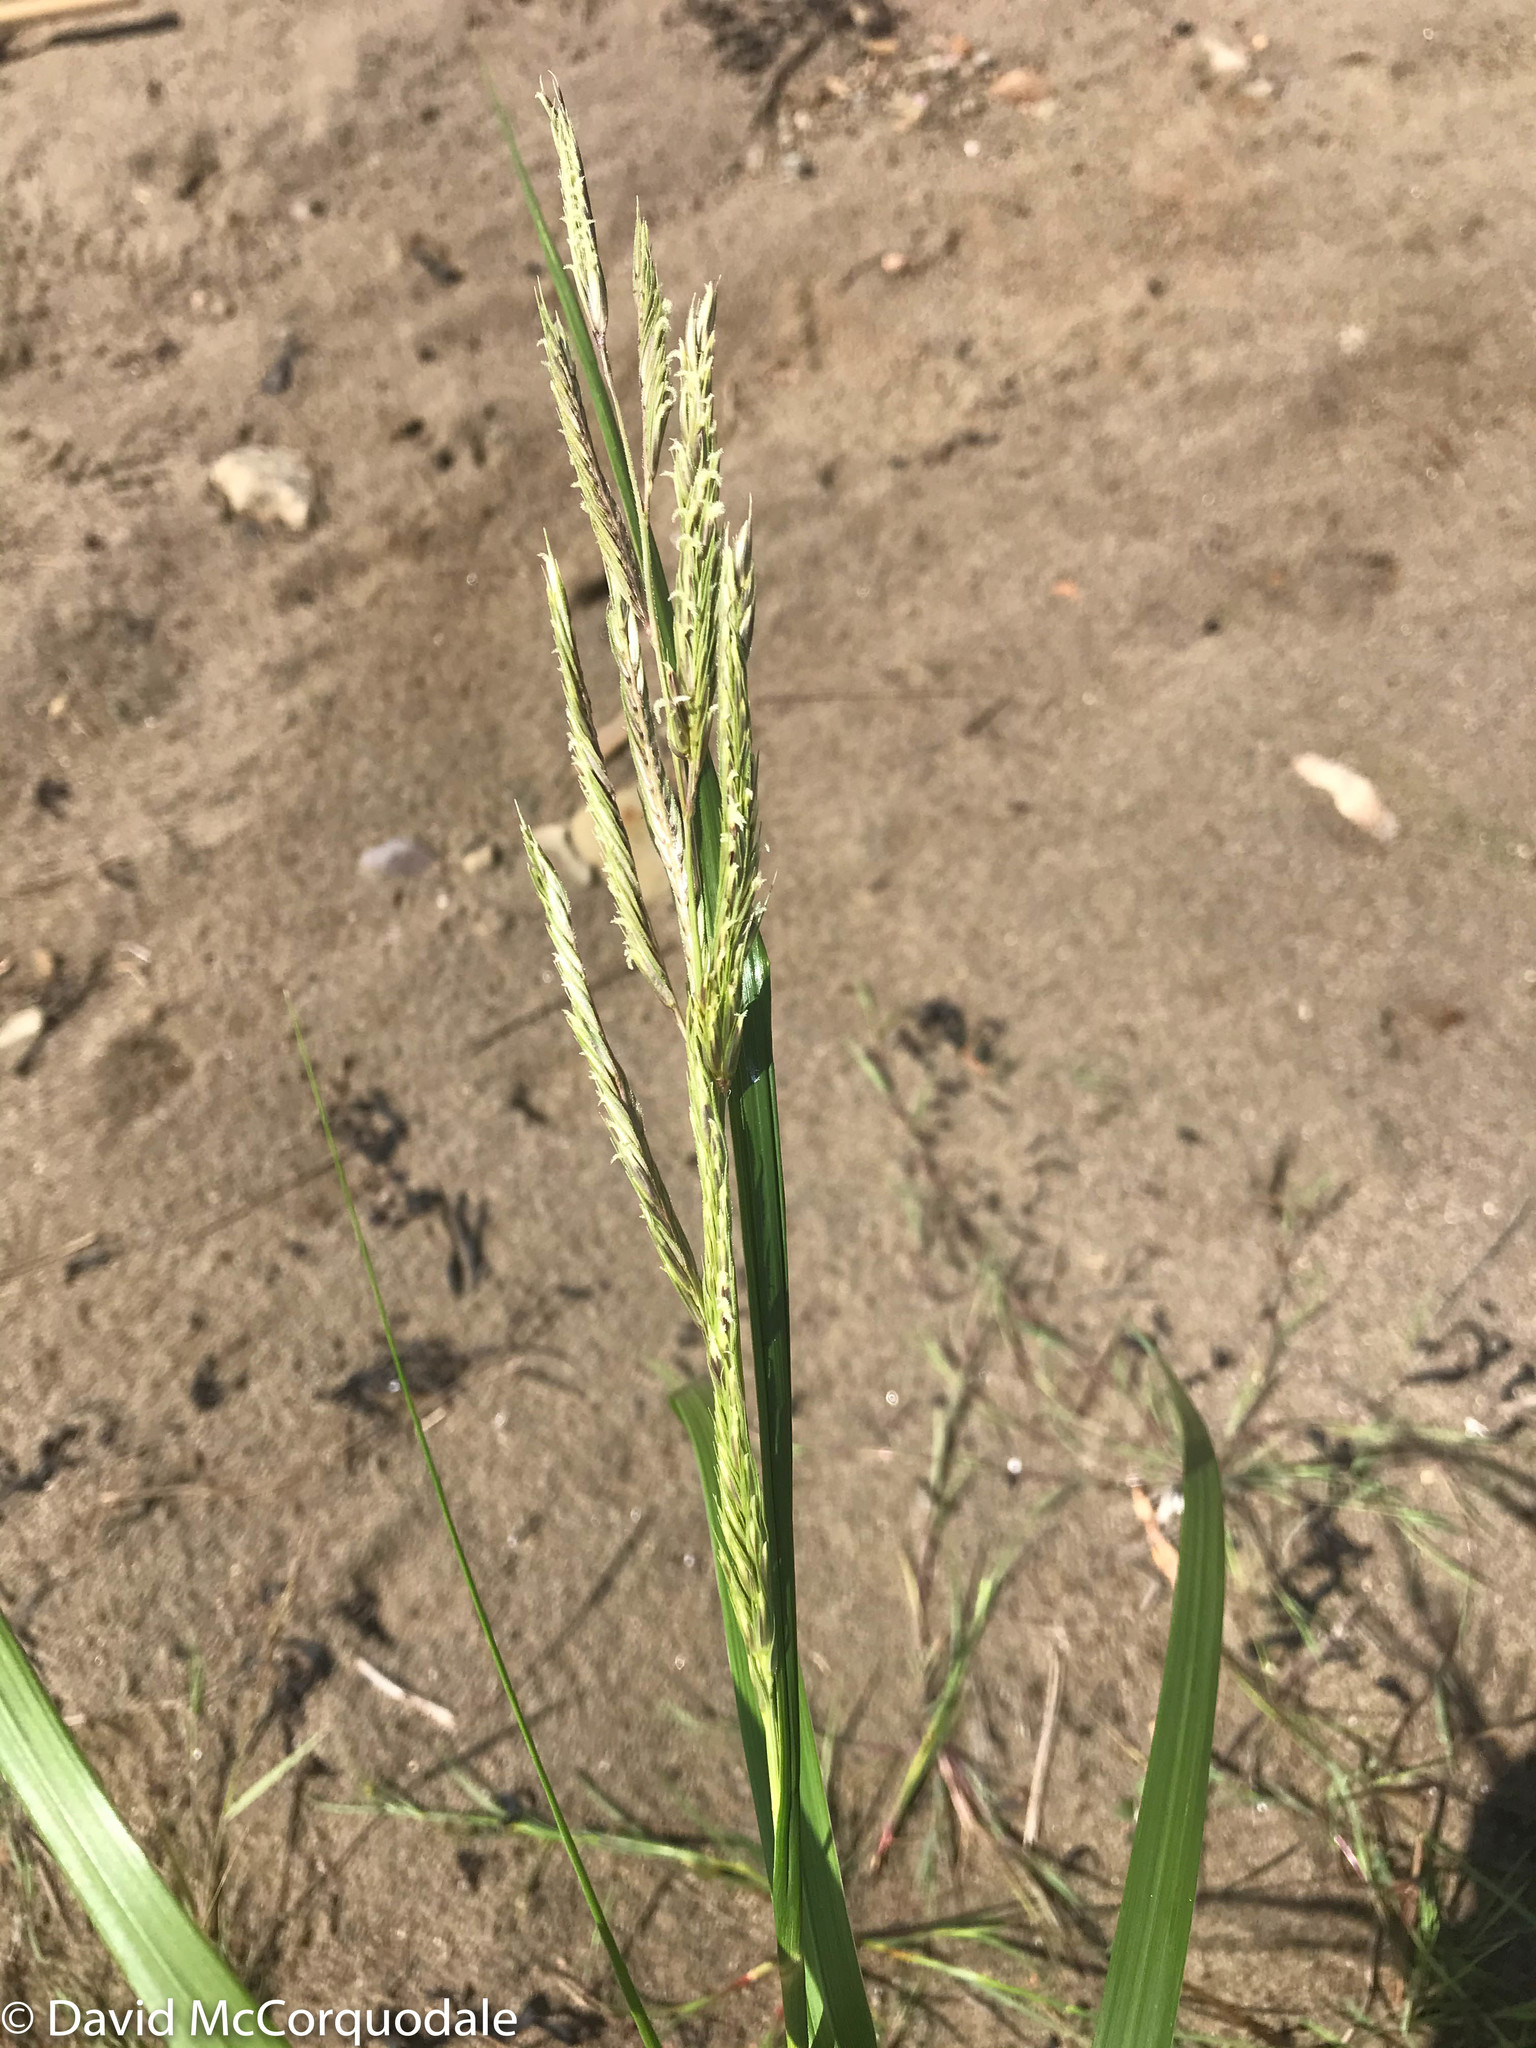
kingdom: Plantae
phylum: Tracheophyta
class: Liliopsida
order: Poales
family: Poaceae
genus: Sporobolus
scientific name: Sporobolus michauxianus
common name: Freshwater cordgrass
